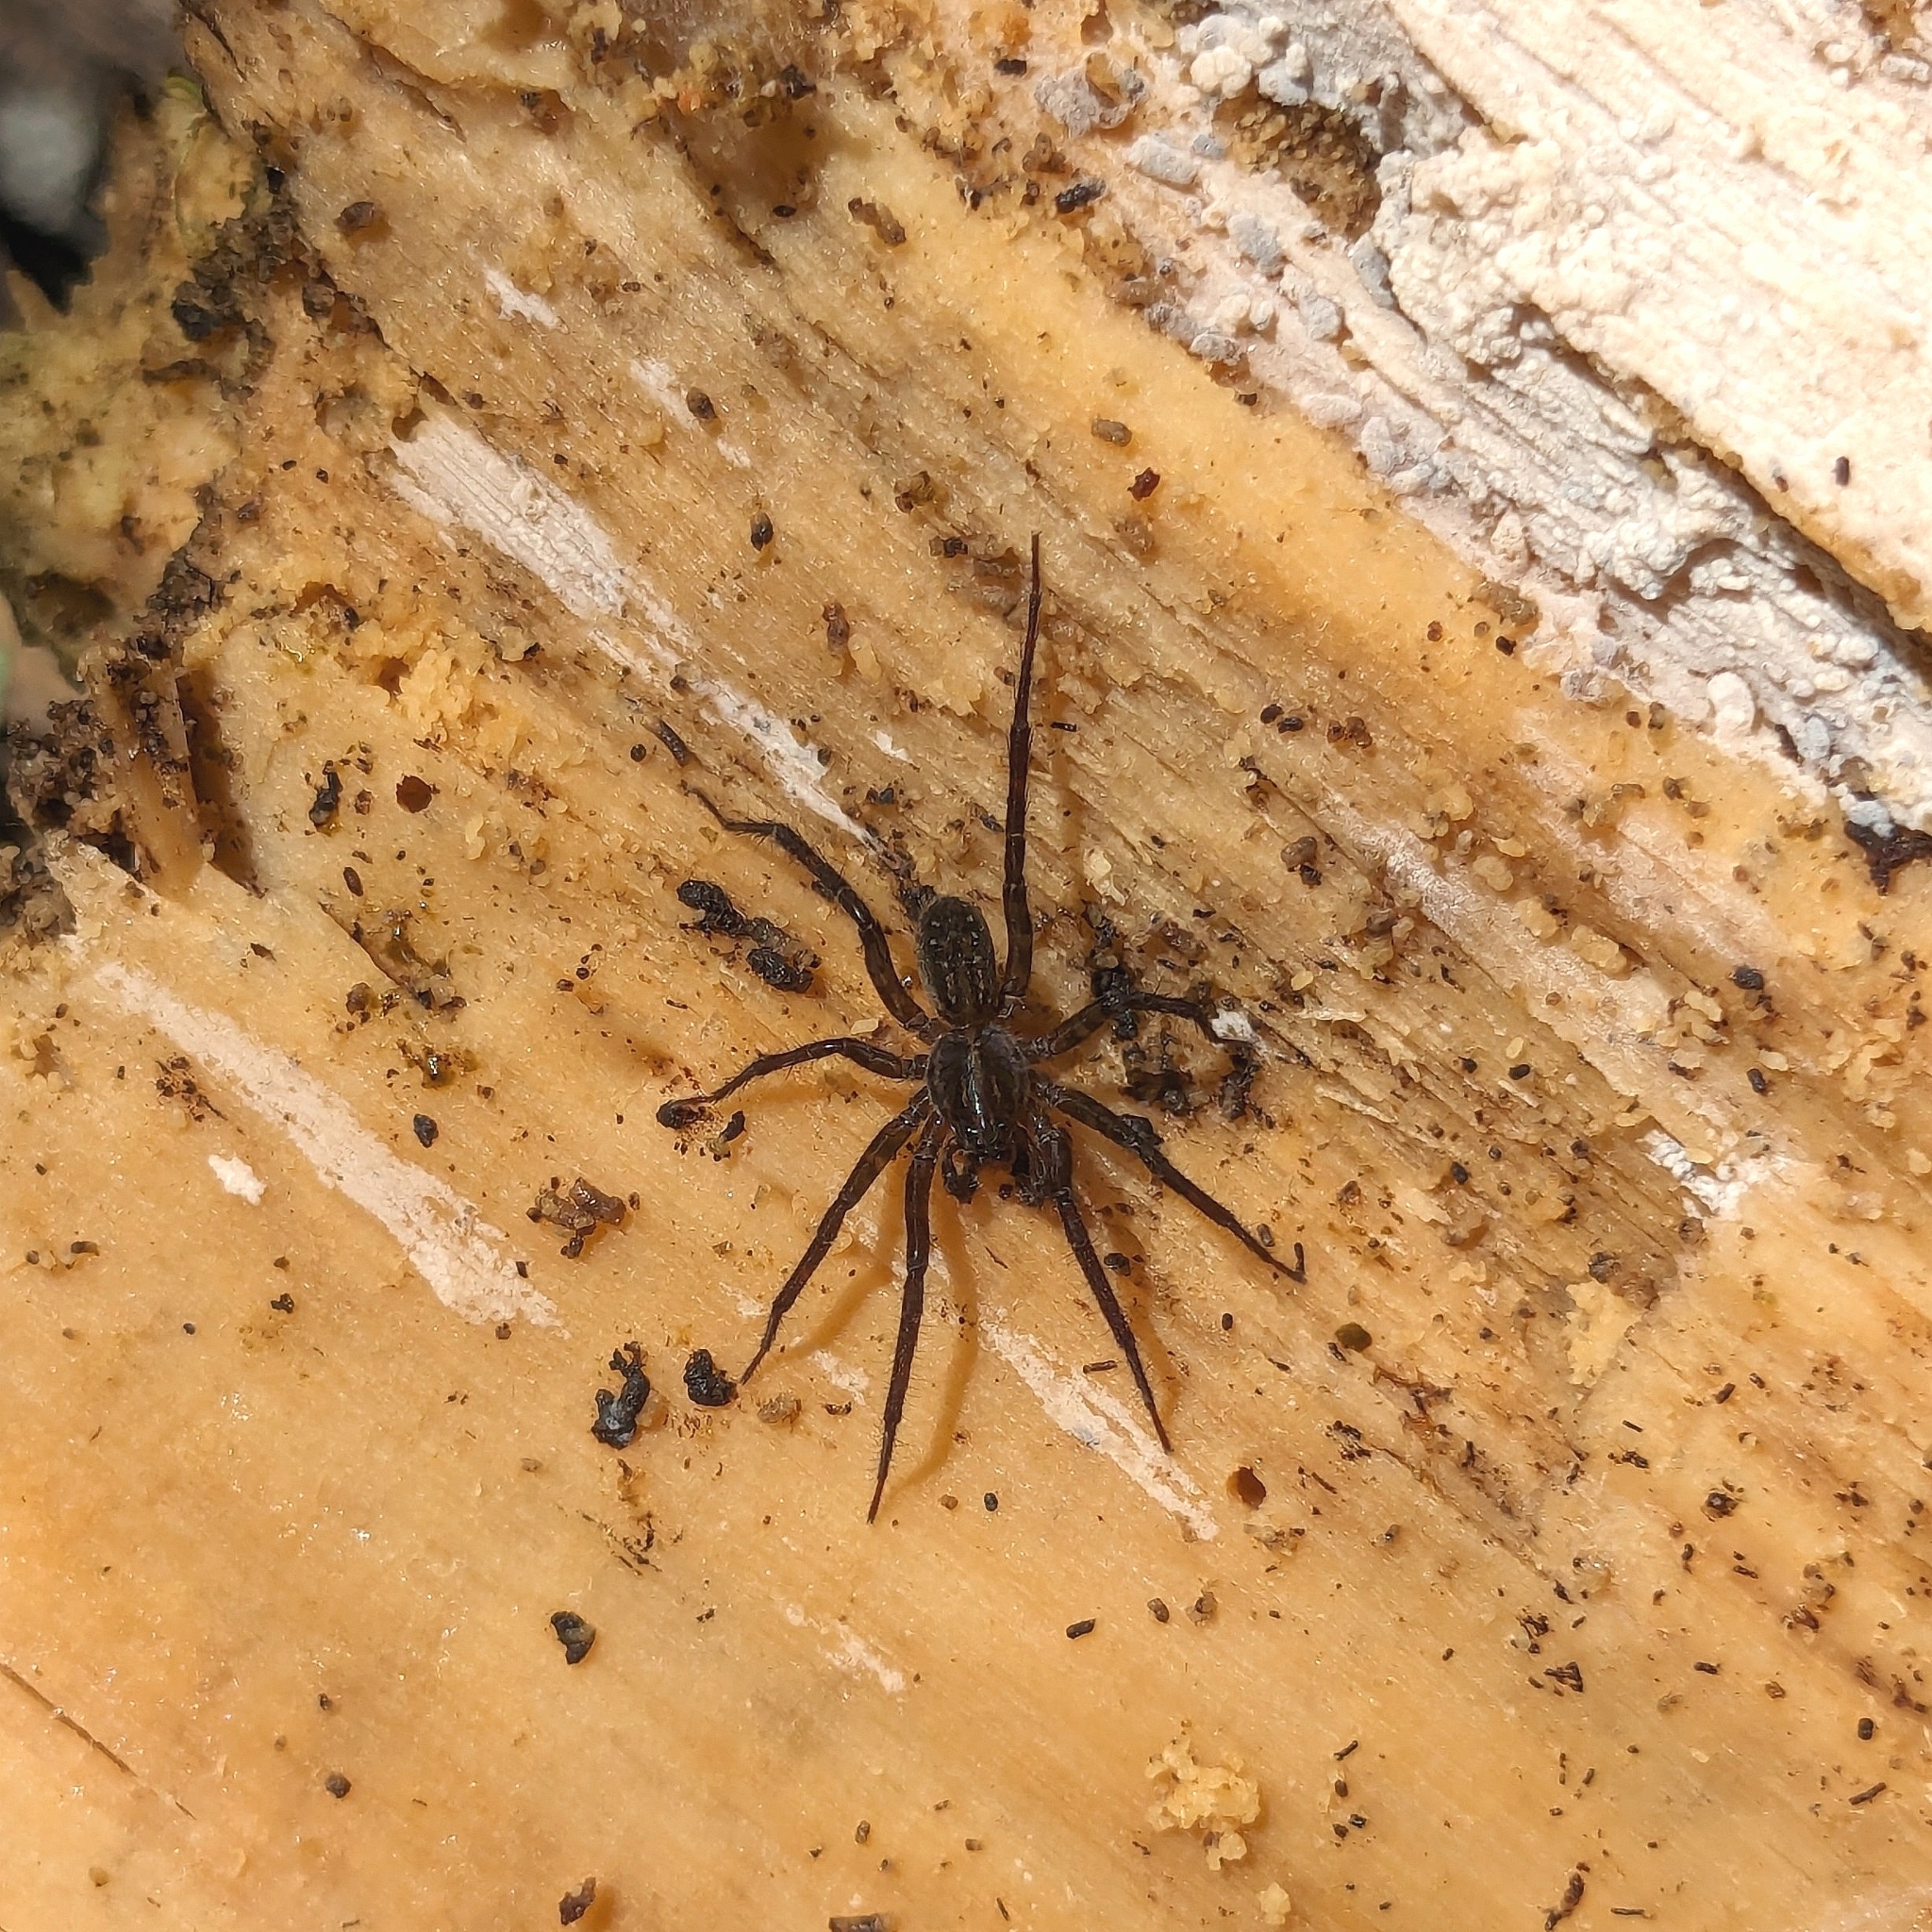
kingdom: Animalia
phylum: Arthropoda
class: Arachnida
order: Araneae
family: Lycosidae
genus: Allotrochosina
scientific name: Allotrochosina schauinslandi
